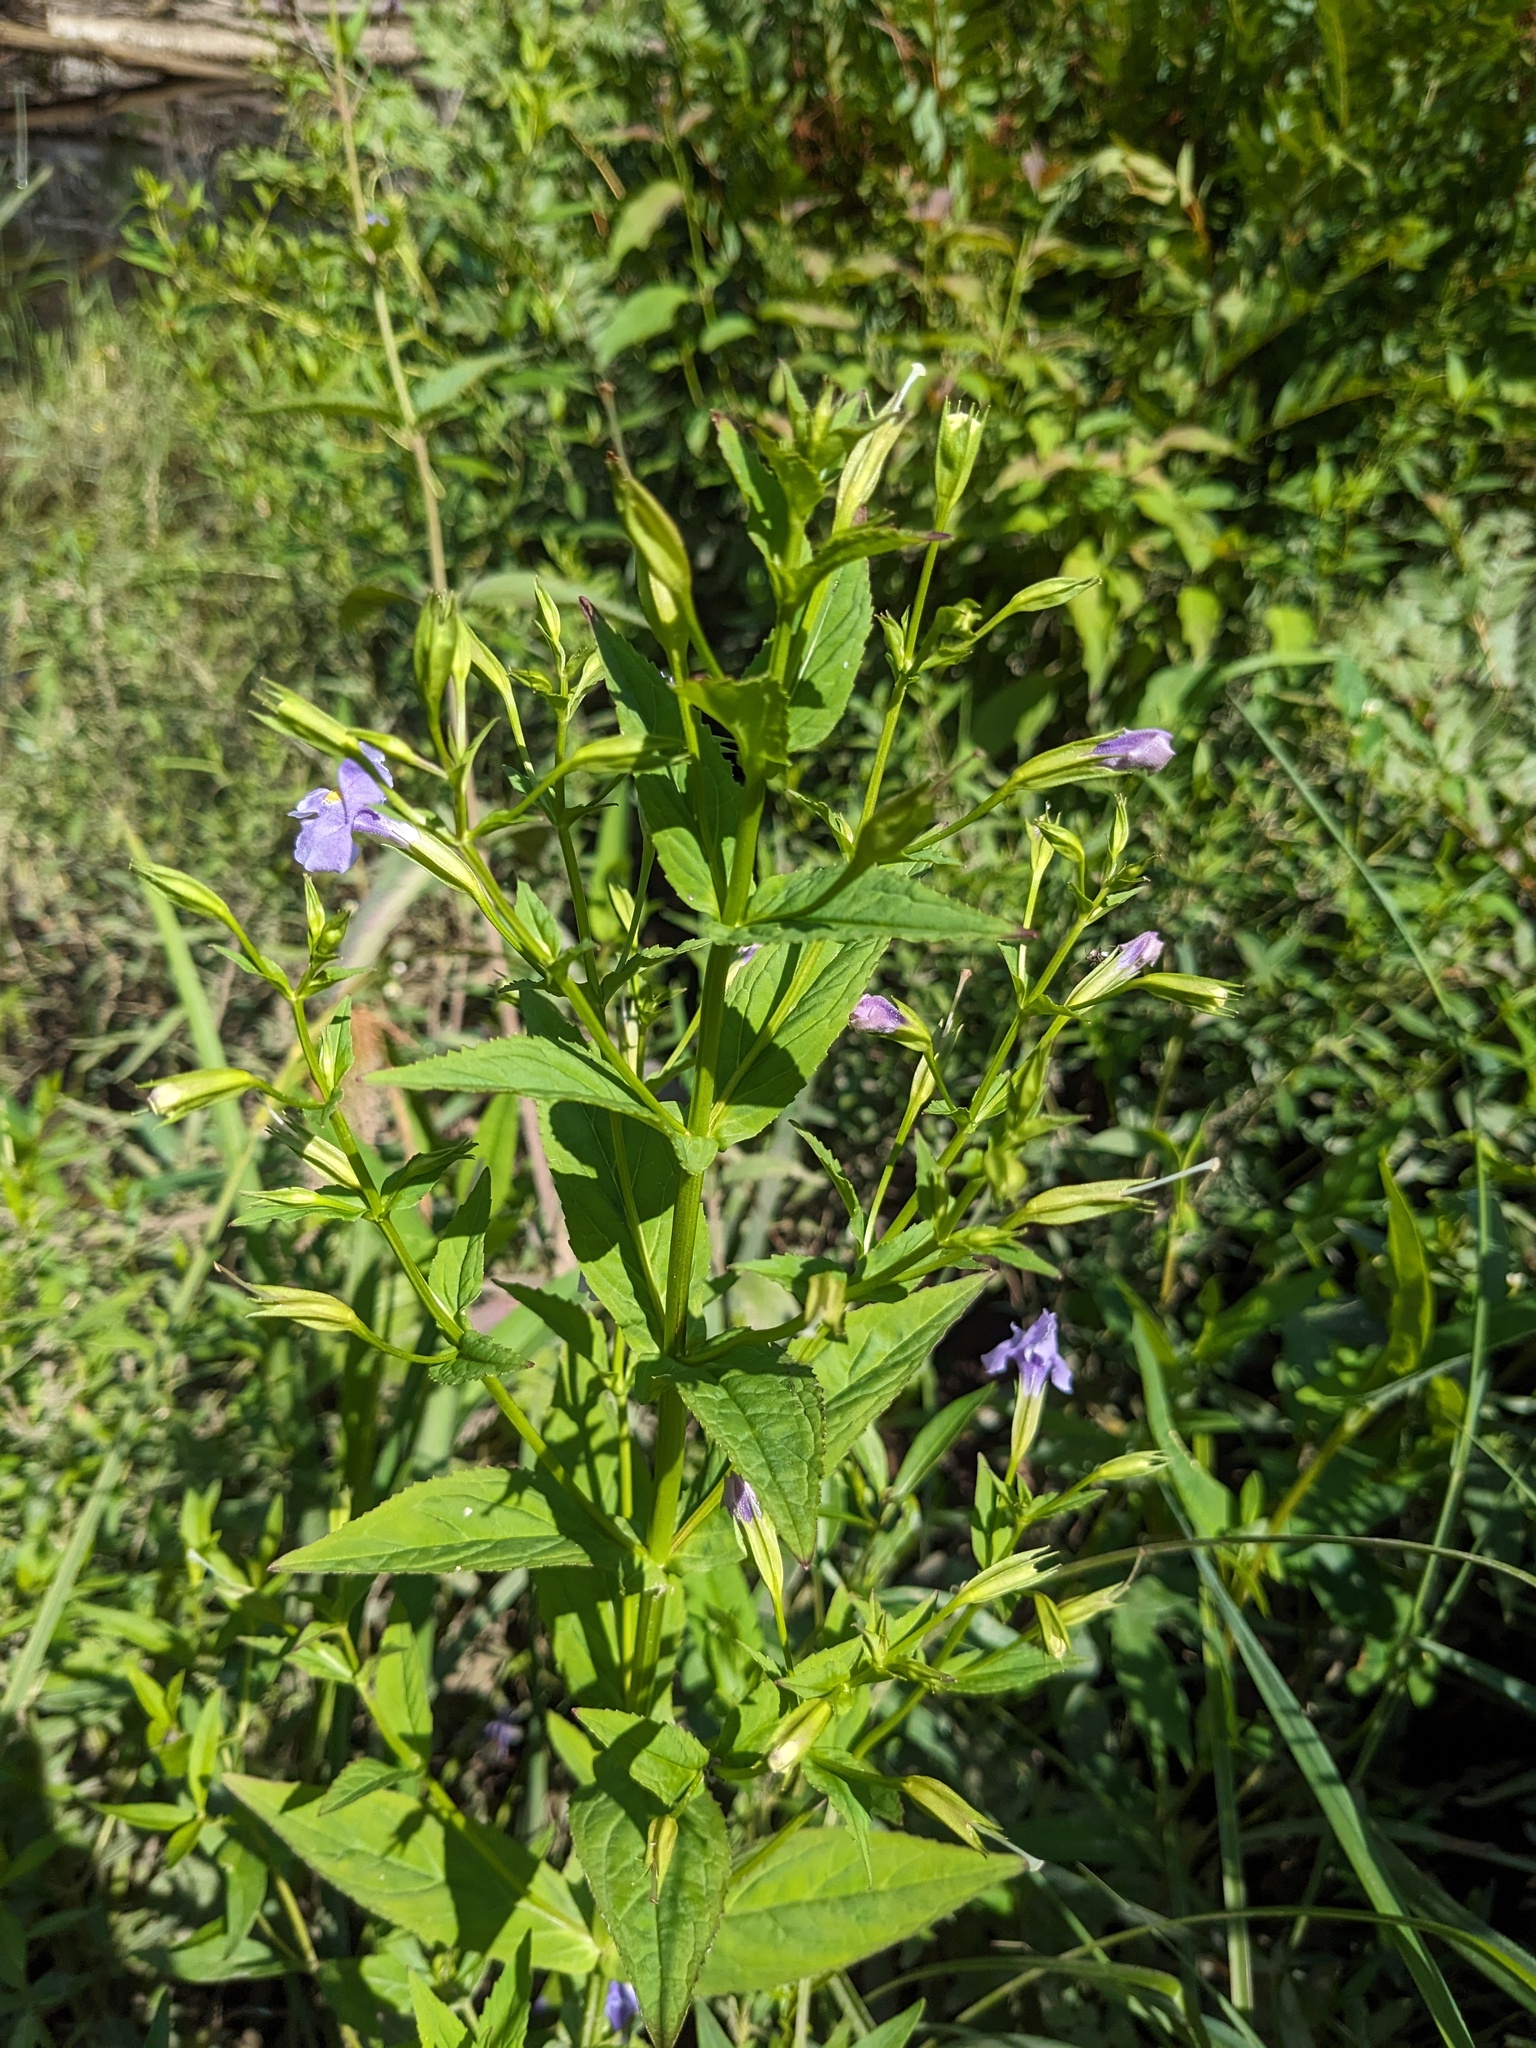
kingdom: Plantae
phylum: Tracheophyta
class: Magnoliopsida
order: Lamiales
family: Phrymaceae
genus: Mimulus
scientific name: Mimulus ringens
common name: Allegheny monkeyflower
